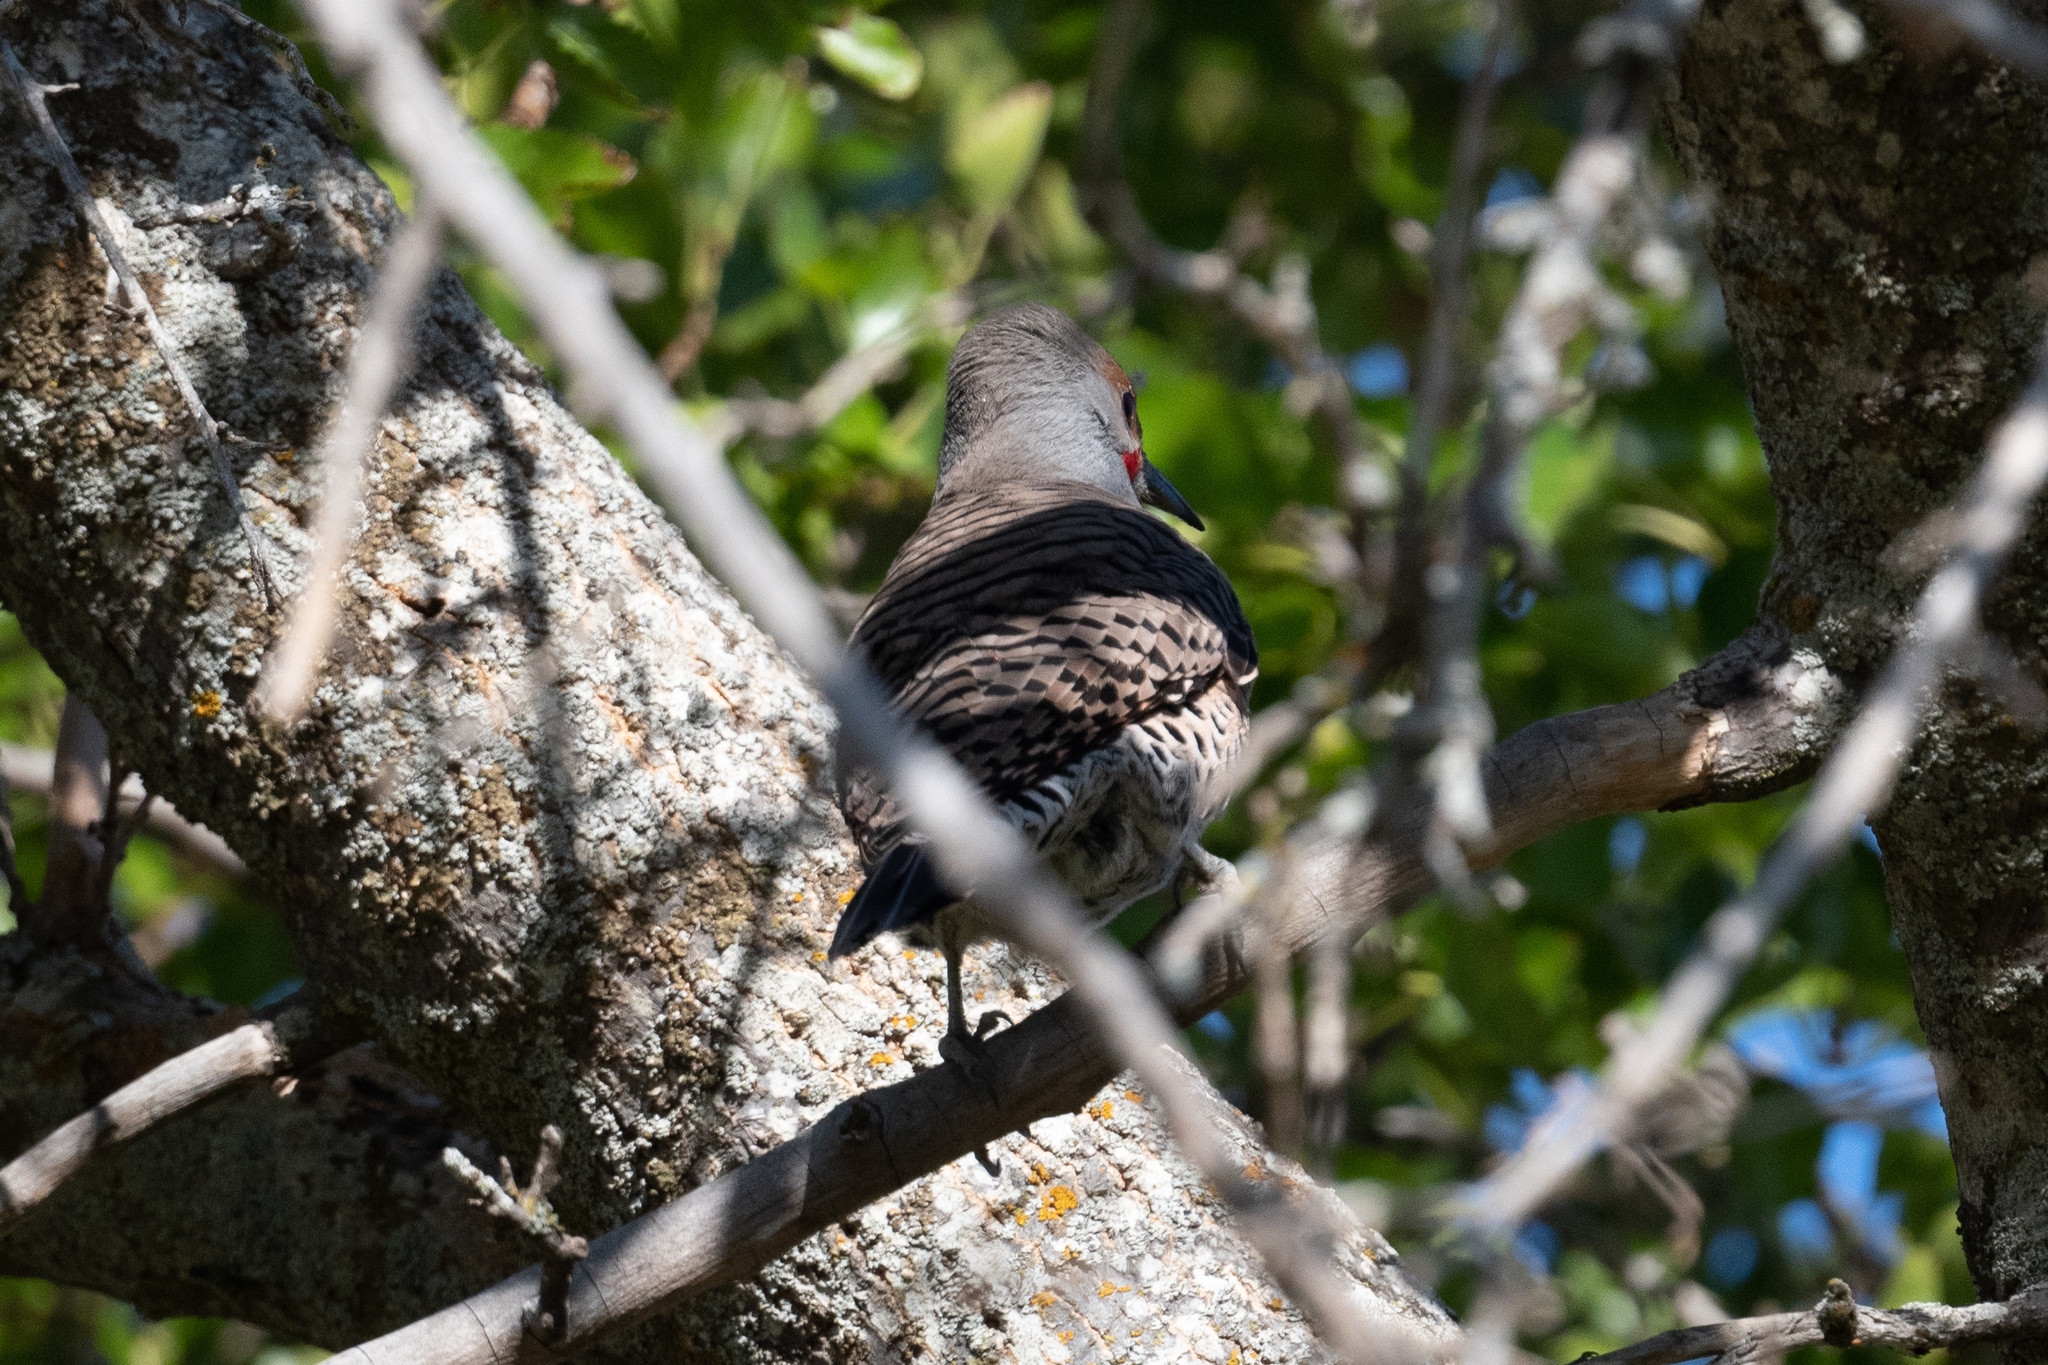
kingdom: Animalia
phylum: Chordata
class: Aves
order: Piciformes
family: Picidae
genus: Colaptes
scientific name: Colaptes auratus
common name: Northern flicker
